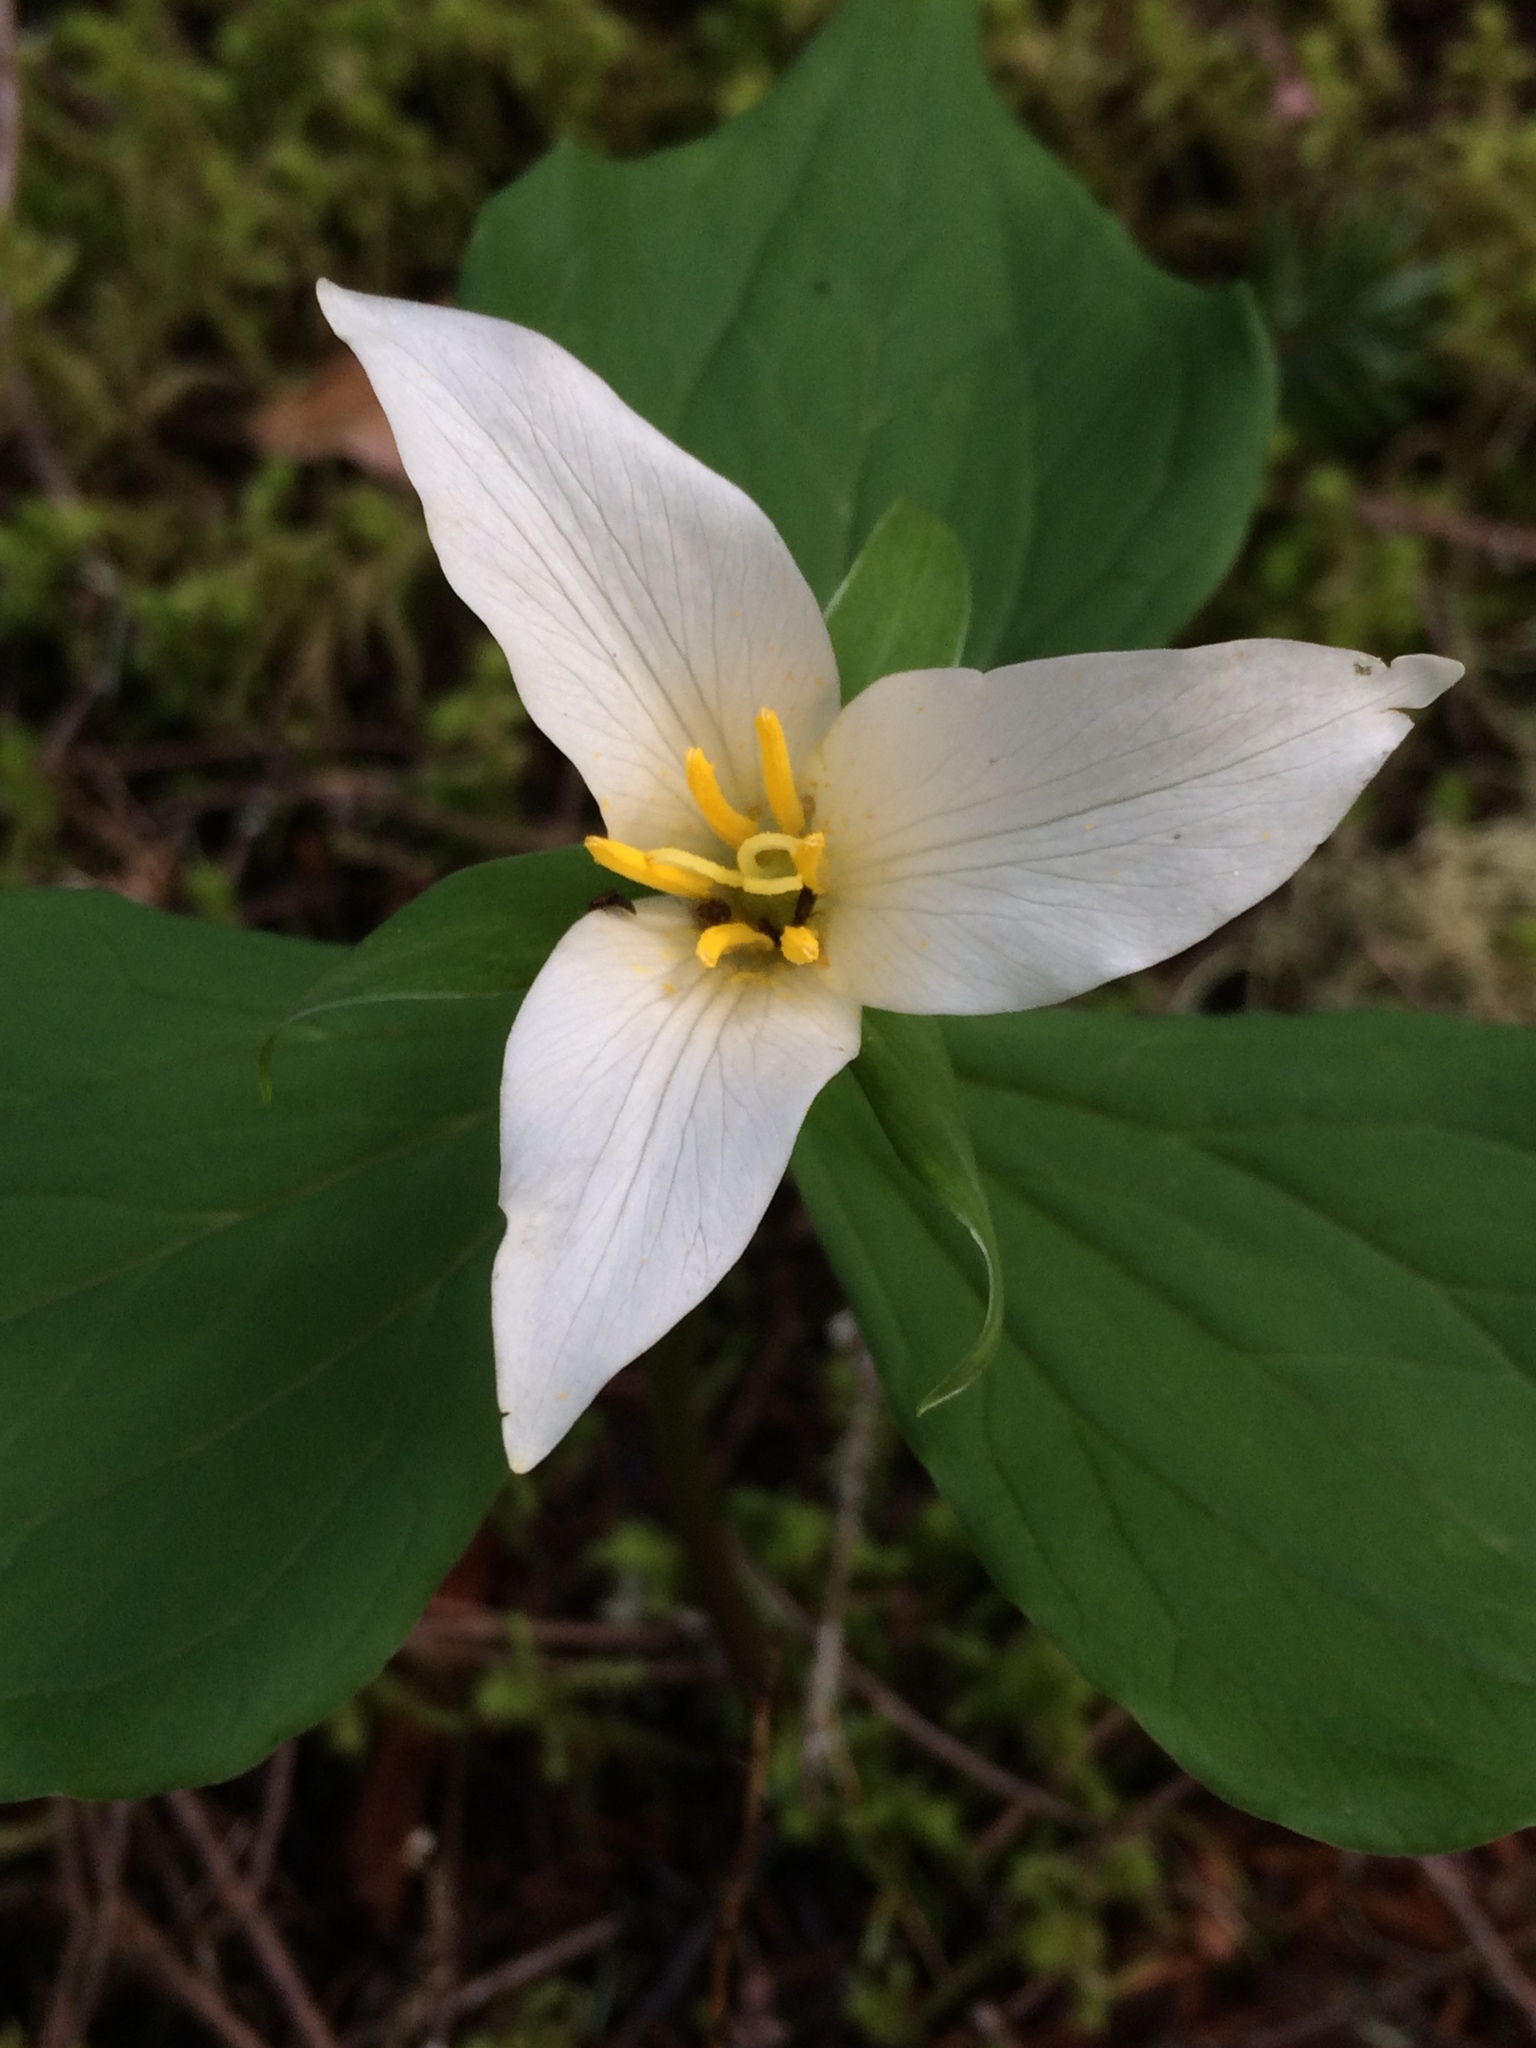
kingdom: Plantae
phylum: Tracheophyta
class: Liliopsida
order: Liliales
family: Melanthiaceae
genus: Trillium
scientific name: Trillium ovatum
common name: Pacific trillium
